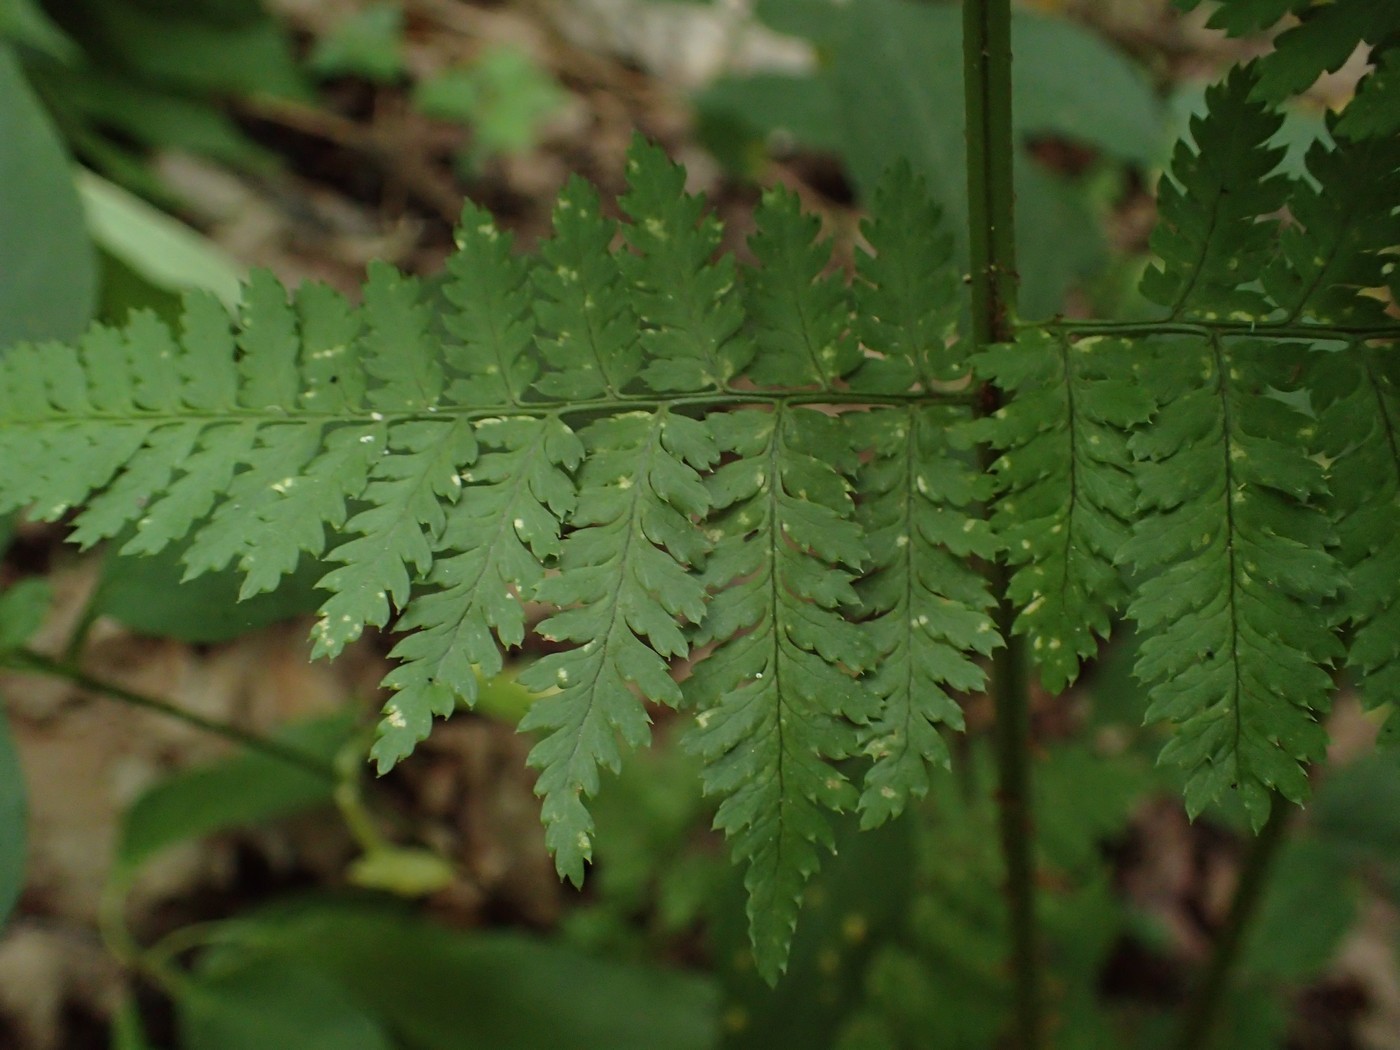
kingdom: Plantae
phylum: Tracheophyta
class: Polypodiopsida
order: Polypodiales
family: Dryopteridaceae
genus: Dryopteris
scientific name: Dryopteris intermedia
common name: Evergreen wood fern
